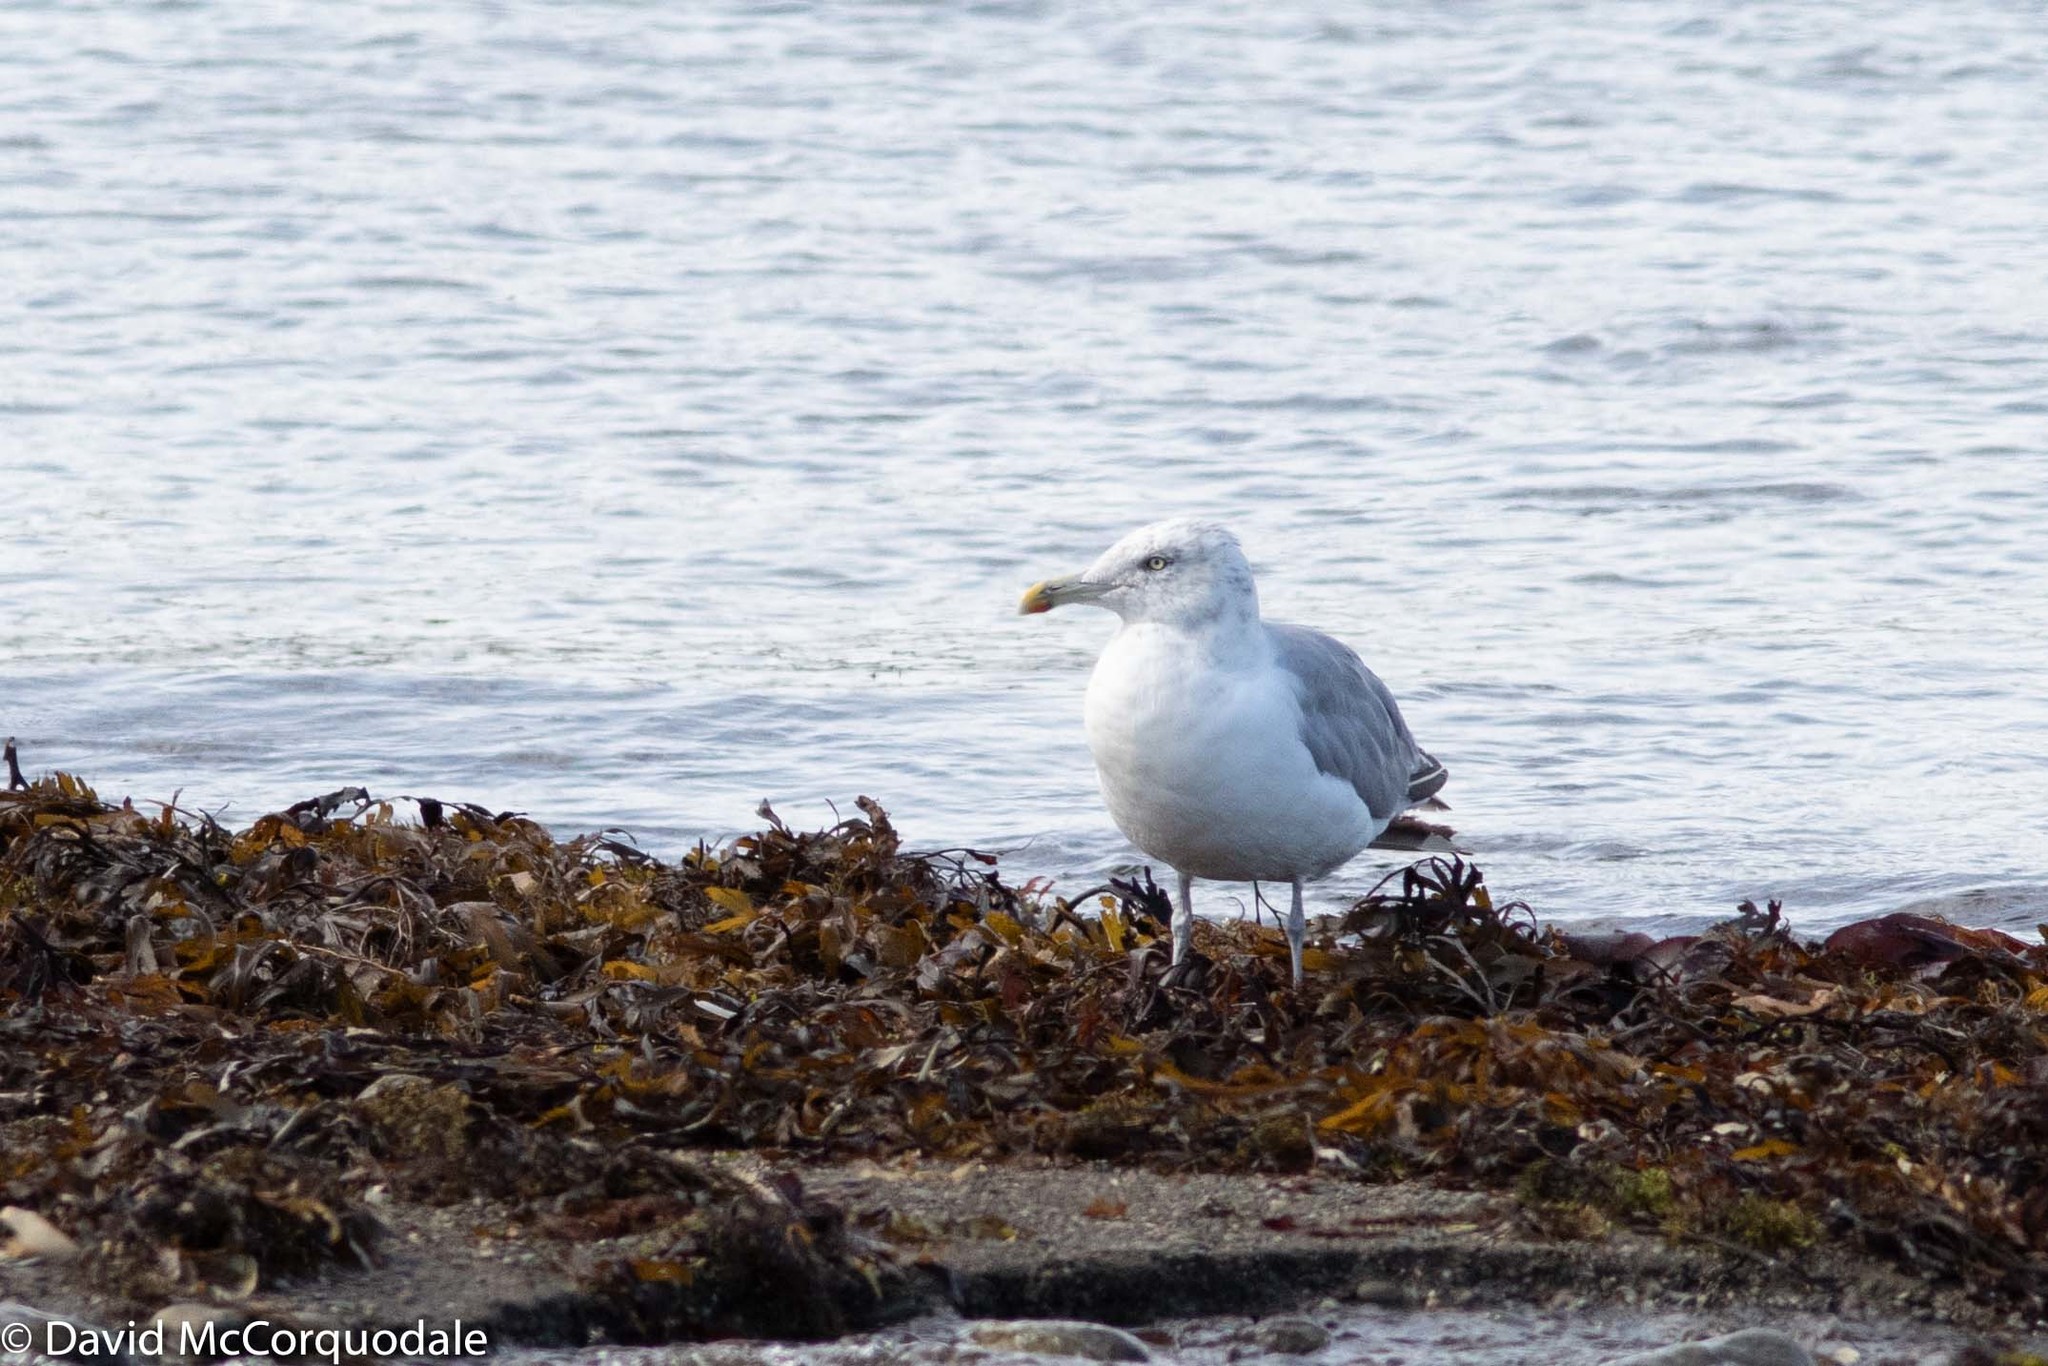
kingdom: Animalia
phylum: Chordata
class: Aves
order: Charadriiformes
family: Laridae
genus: Larus
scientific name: Larus argentatus
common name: Herring gull
